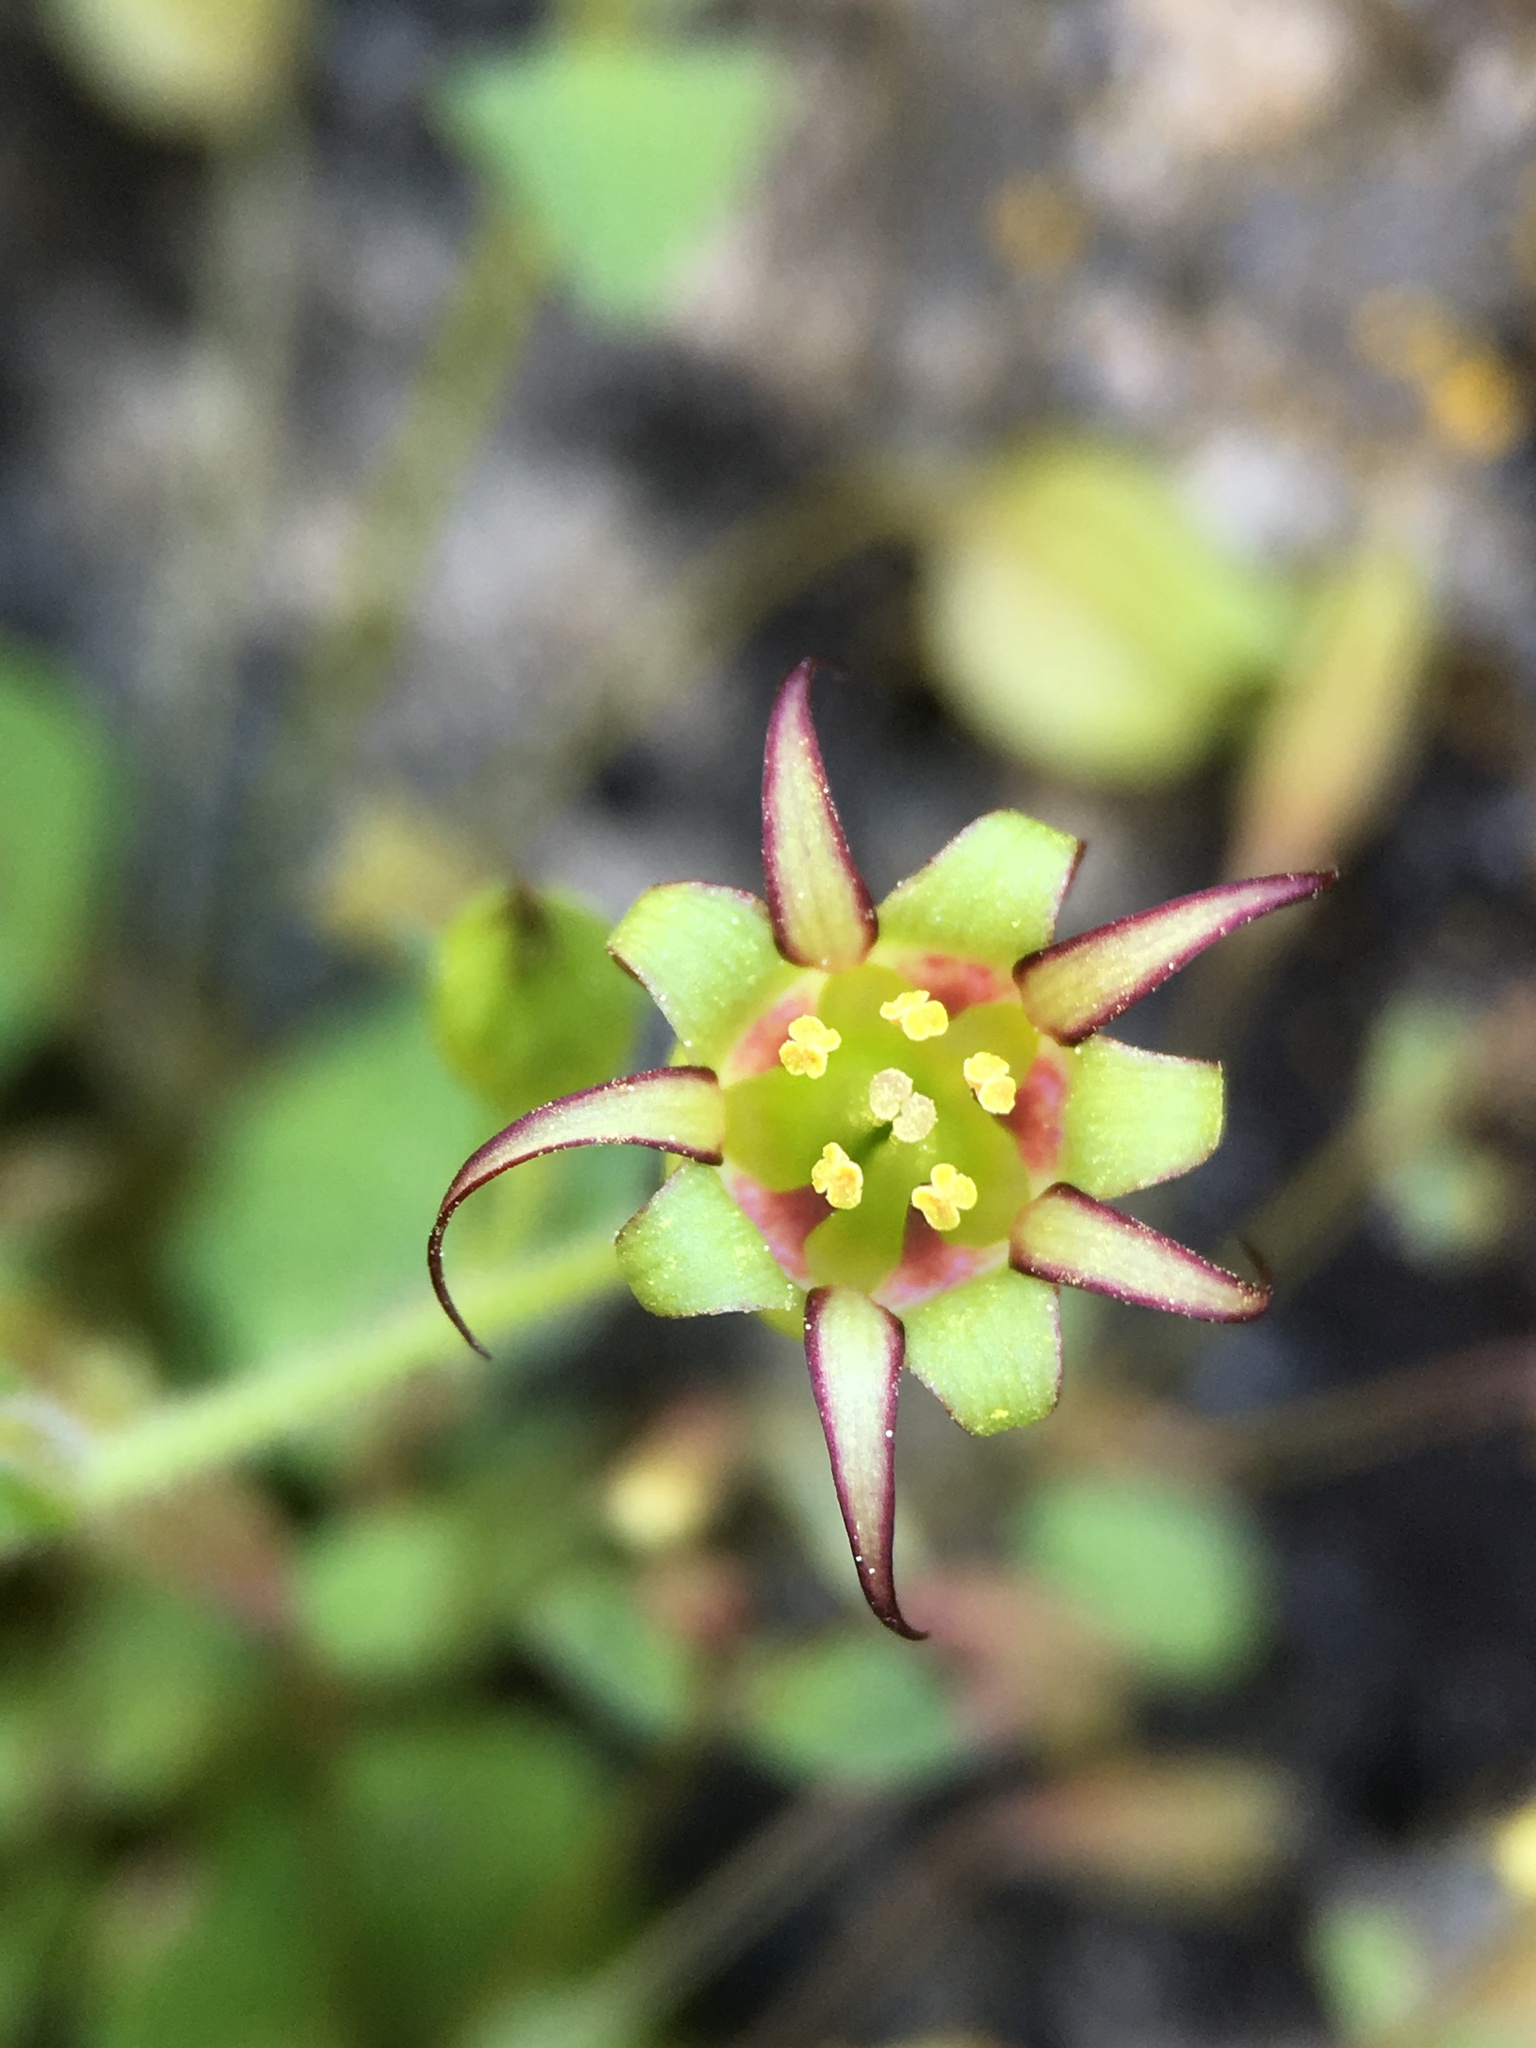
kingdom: Plantae
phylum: Tracheophyta
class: Magnoliopsida
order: Saxifragales
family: Saxifragaceae
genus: Bolandra
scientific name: Bolandra californica
